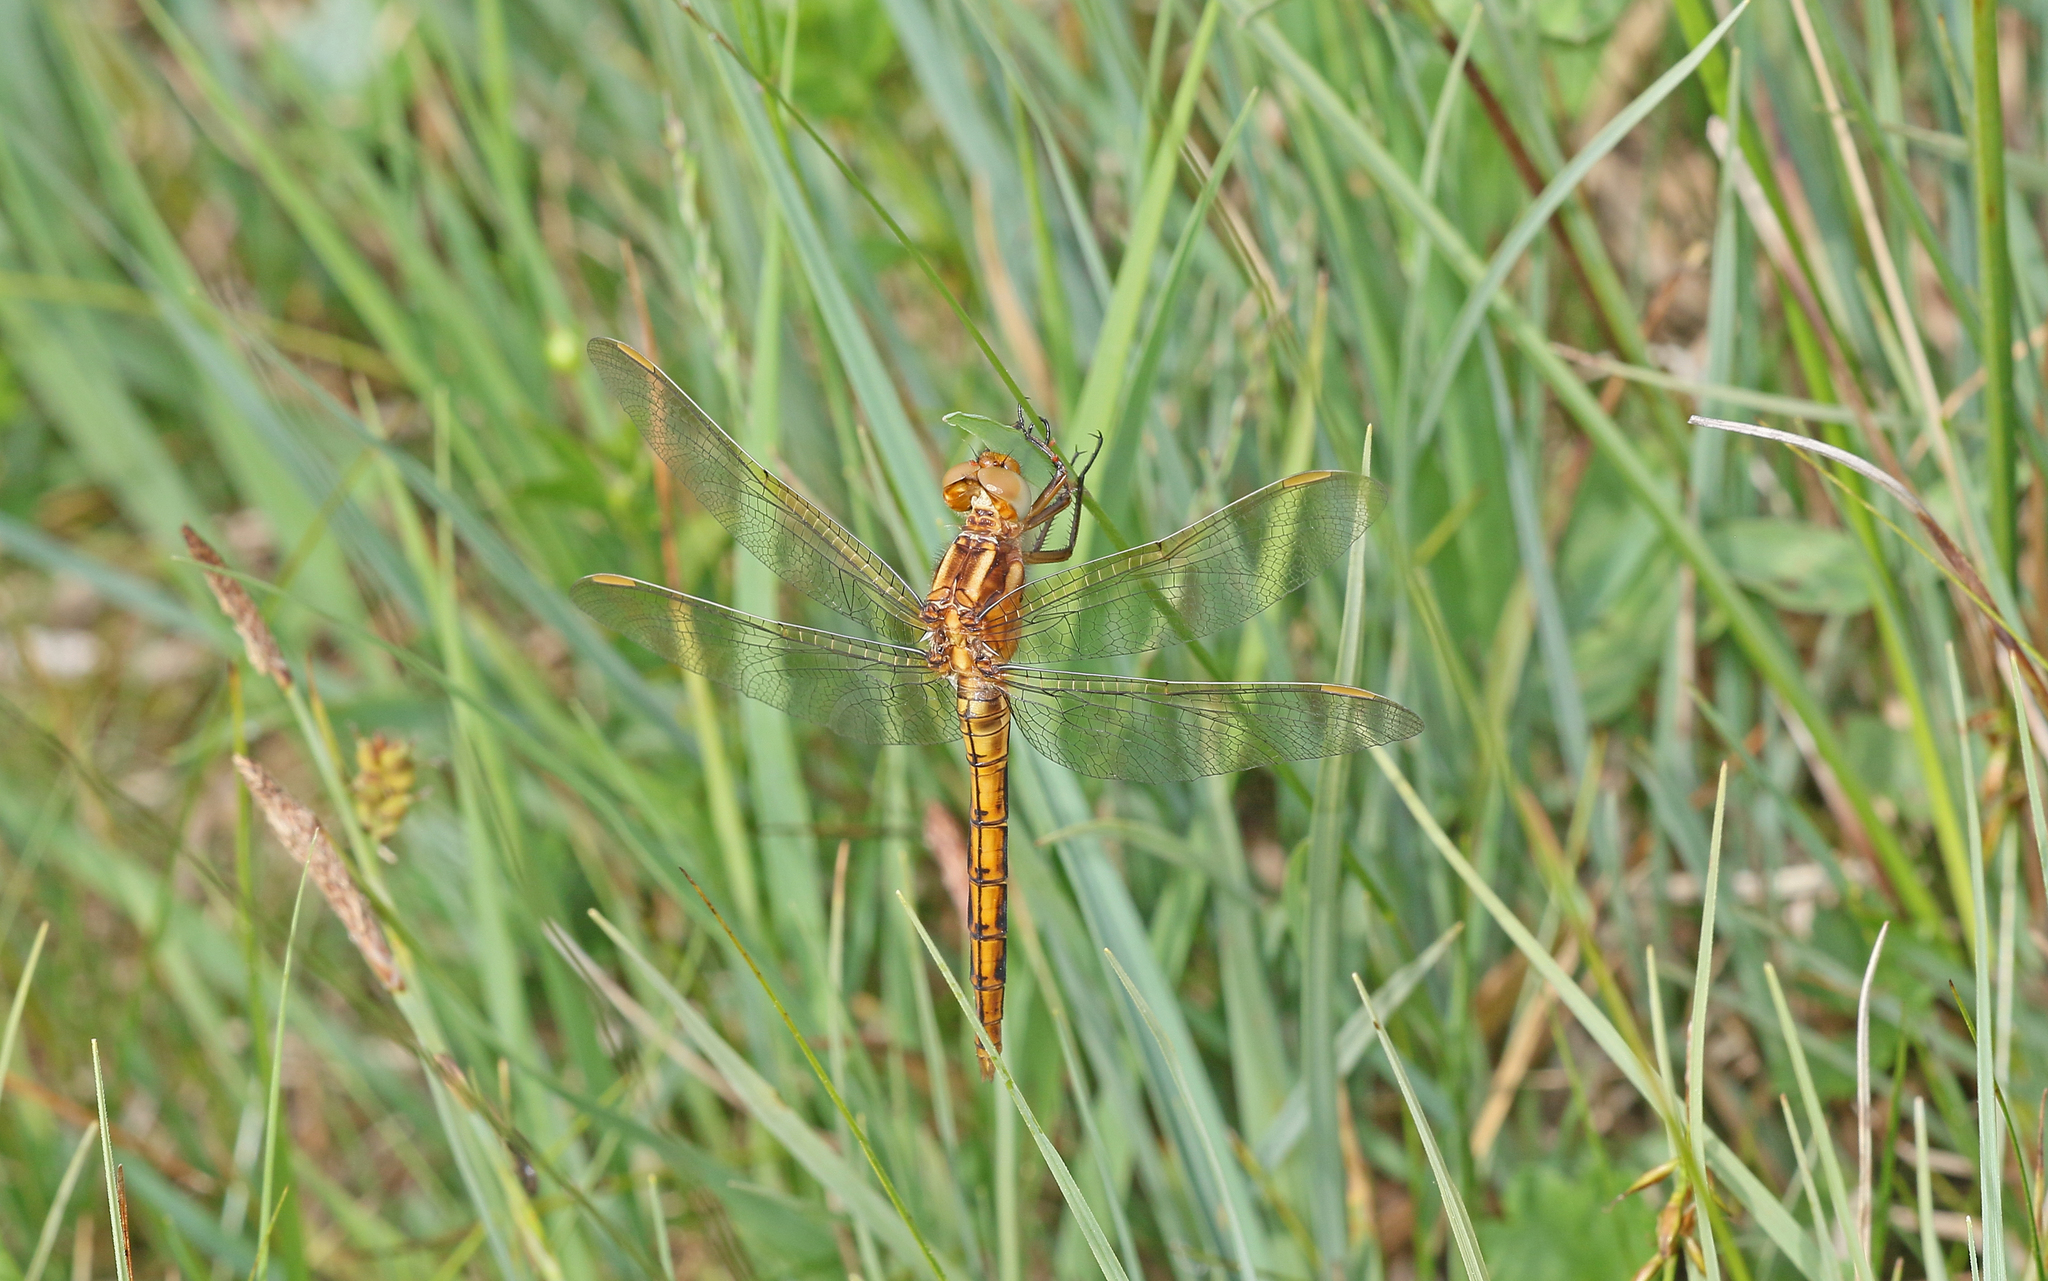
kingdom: Animalia
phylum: Arthropoda
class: Insecta
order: Odonata
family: Libellulidae
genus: Orthetrum
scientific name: Orthetrum coerulescens
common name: Keeled skimmer
